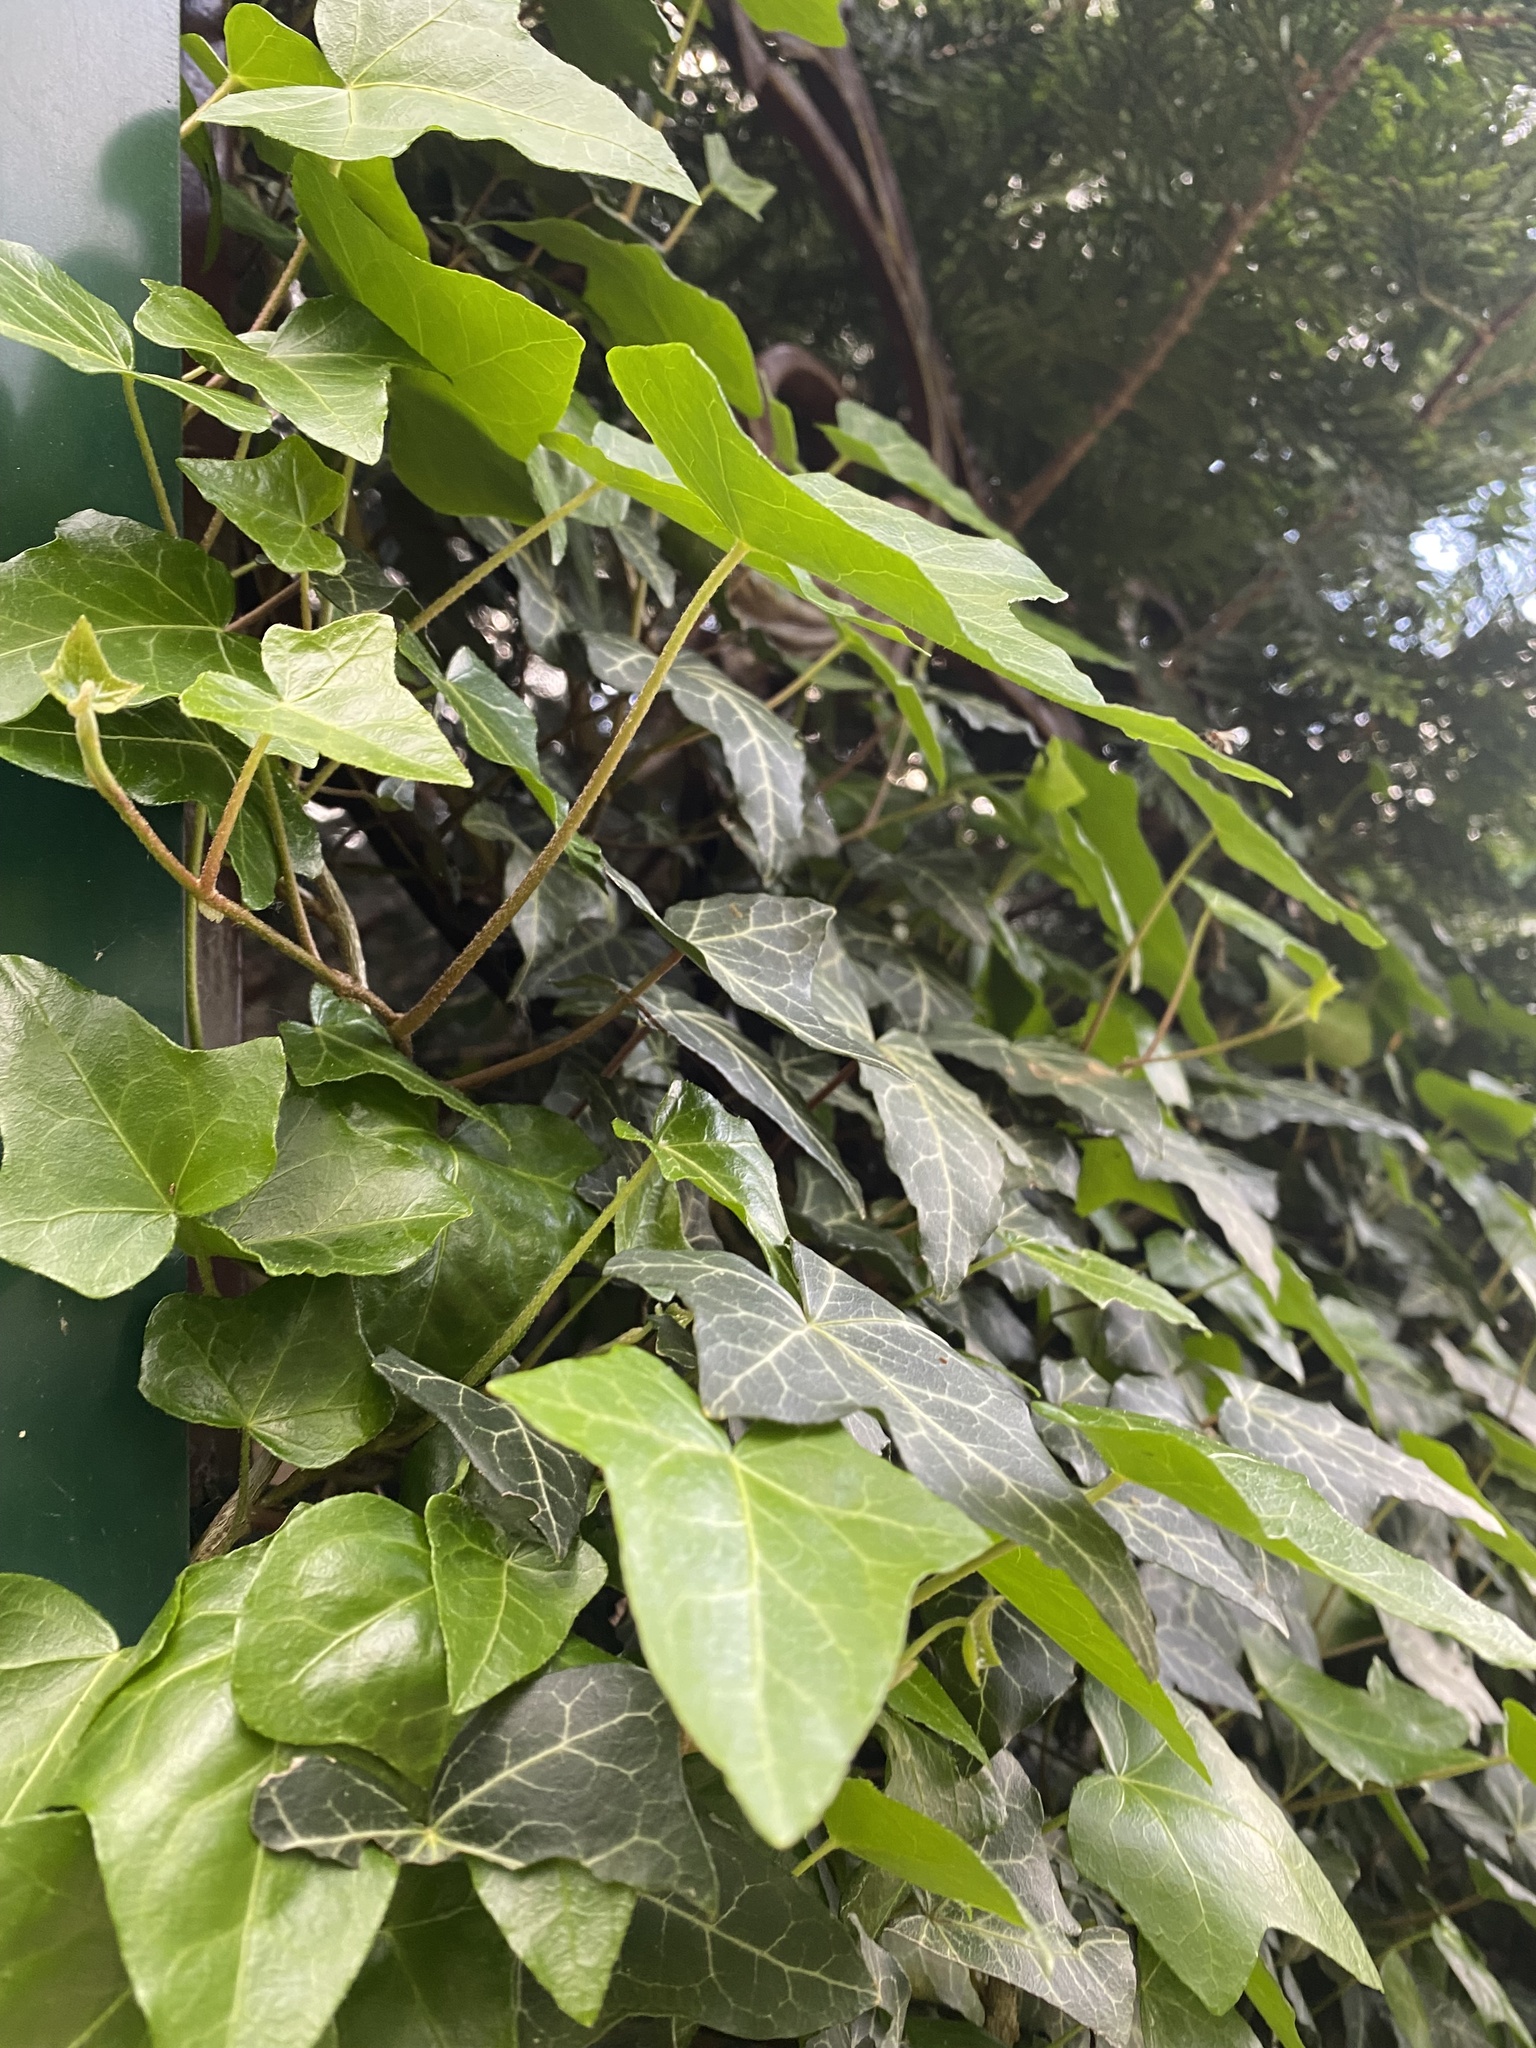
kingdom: Plantae
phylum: Tracheophyta
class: Magnoliopsida
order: Apiales
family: Araliaceae
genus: Hedera
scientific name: Hedera helix
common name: Ivy
